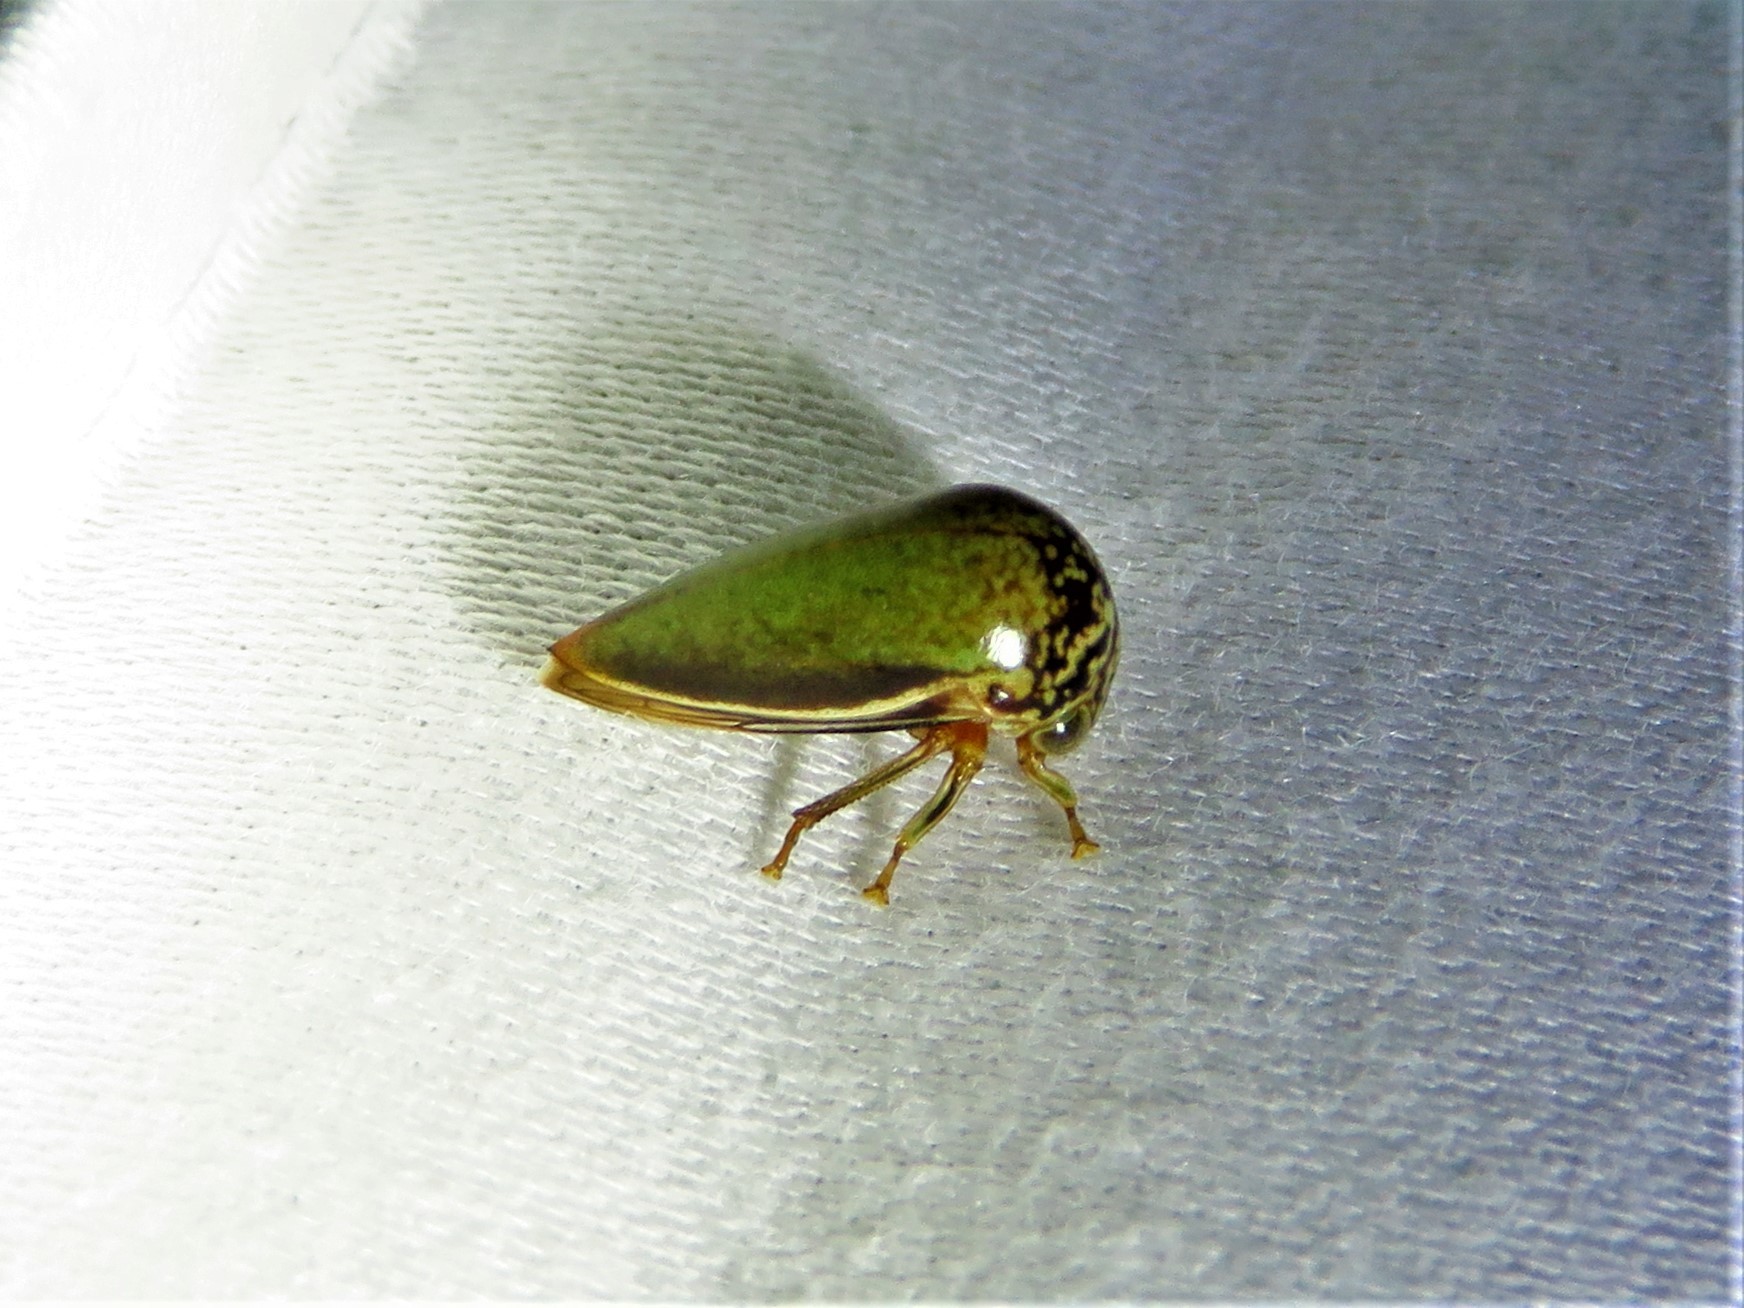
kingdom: Animalia
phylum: Arthropoda
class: Insecta
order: Hemiptera
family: Membracidae
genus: Stictopelta
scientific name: Stictopelta marmorata
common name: Treehopper
